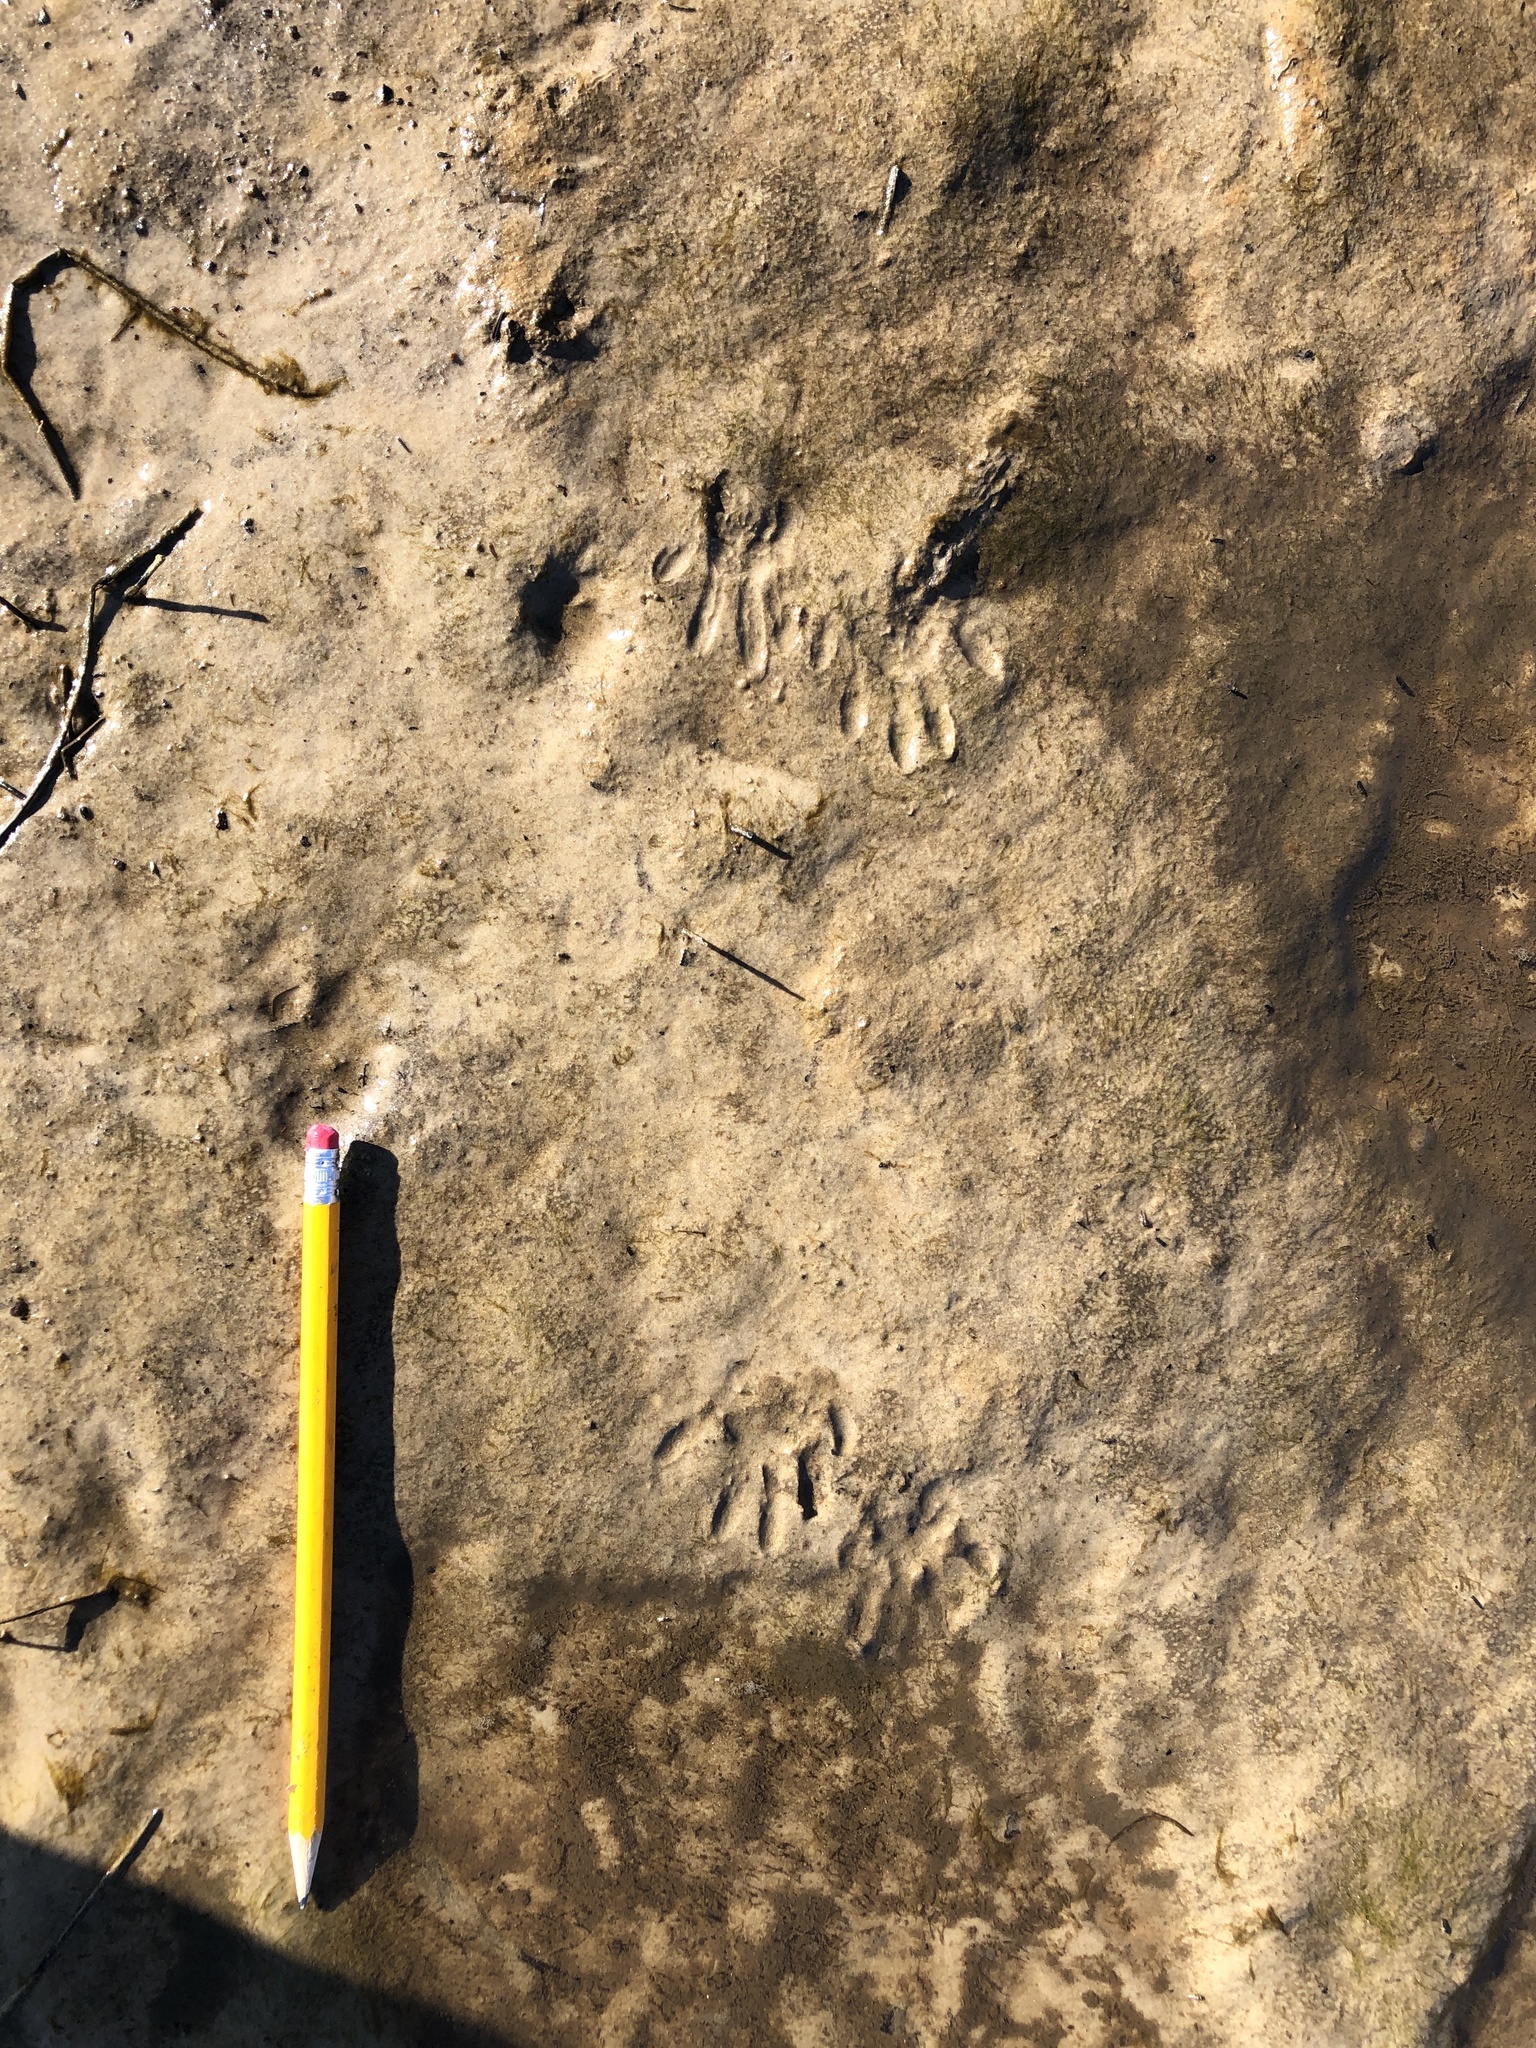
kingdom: Animalia
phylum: Chordata
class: Mammalia
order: Carnivora
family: Procyonidae
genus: Procyon
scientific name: Procyon lotor
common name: Raccoon
